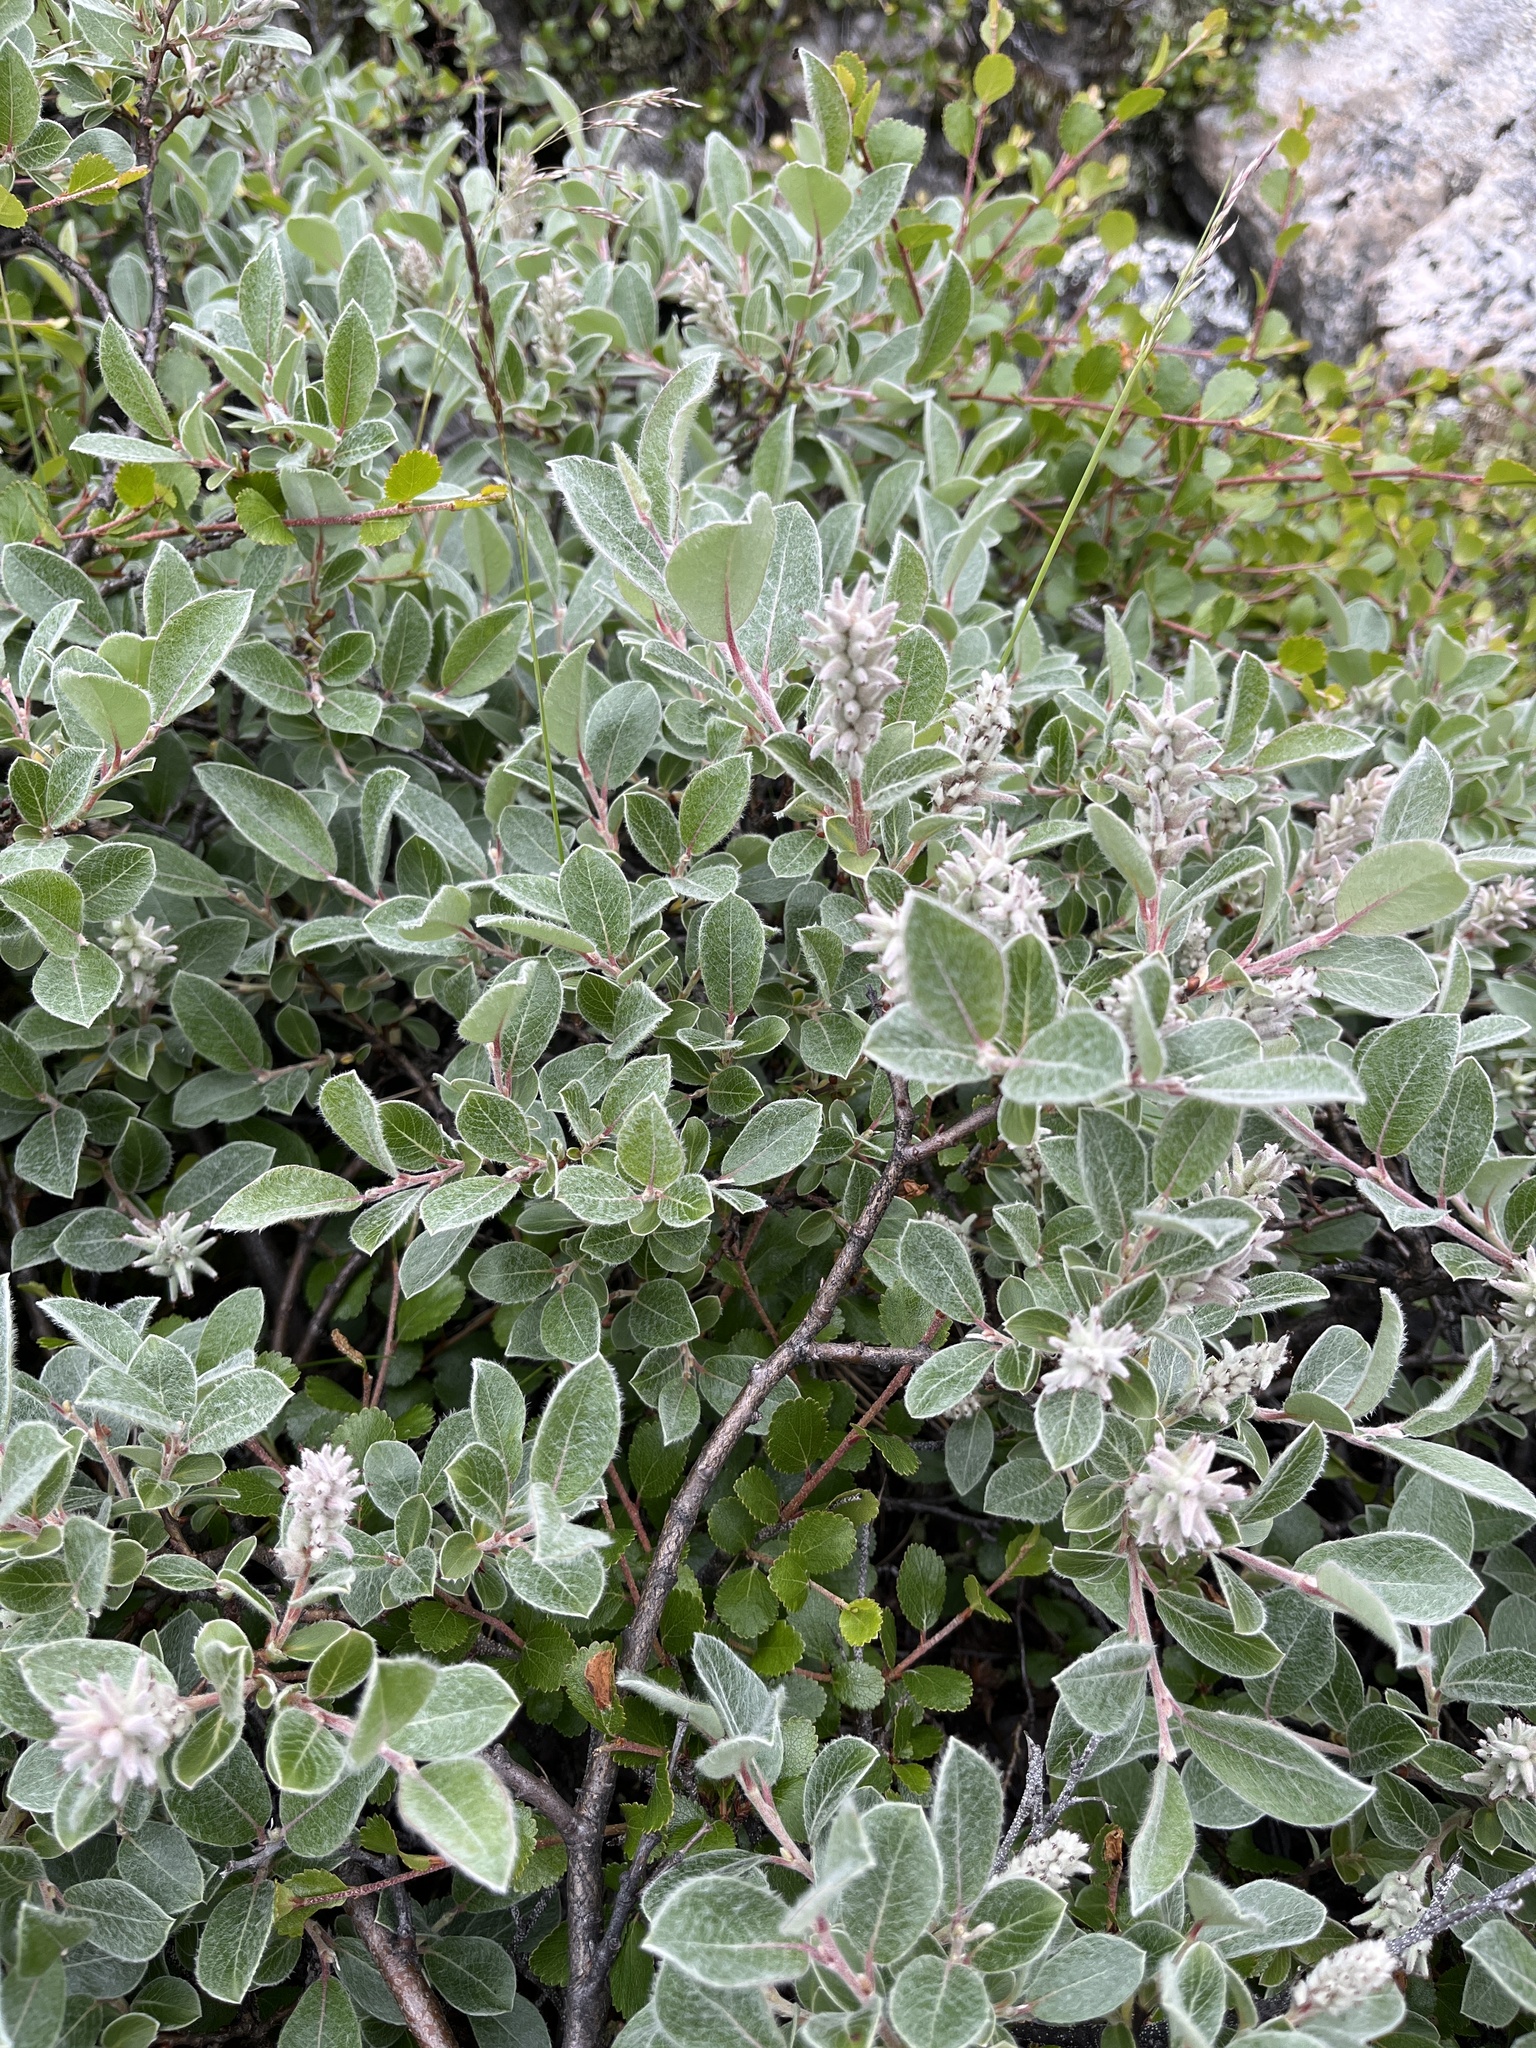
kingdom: Plantae
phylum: Tracheophyta
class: Magnoliopsida
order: Malpighiales
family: Salicaceae
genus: Salix
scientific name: Salix glauca
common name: Glaucous willow
